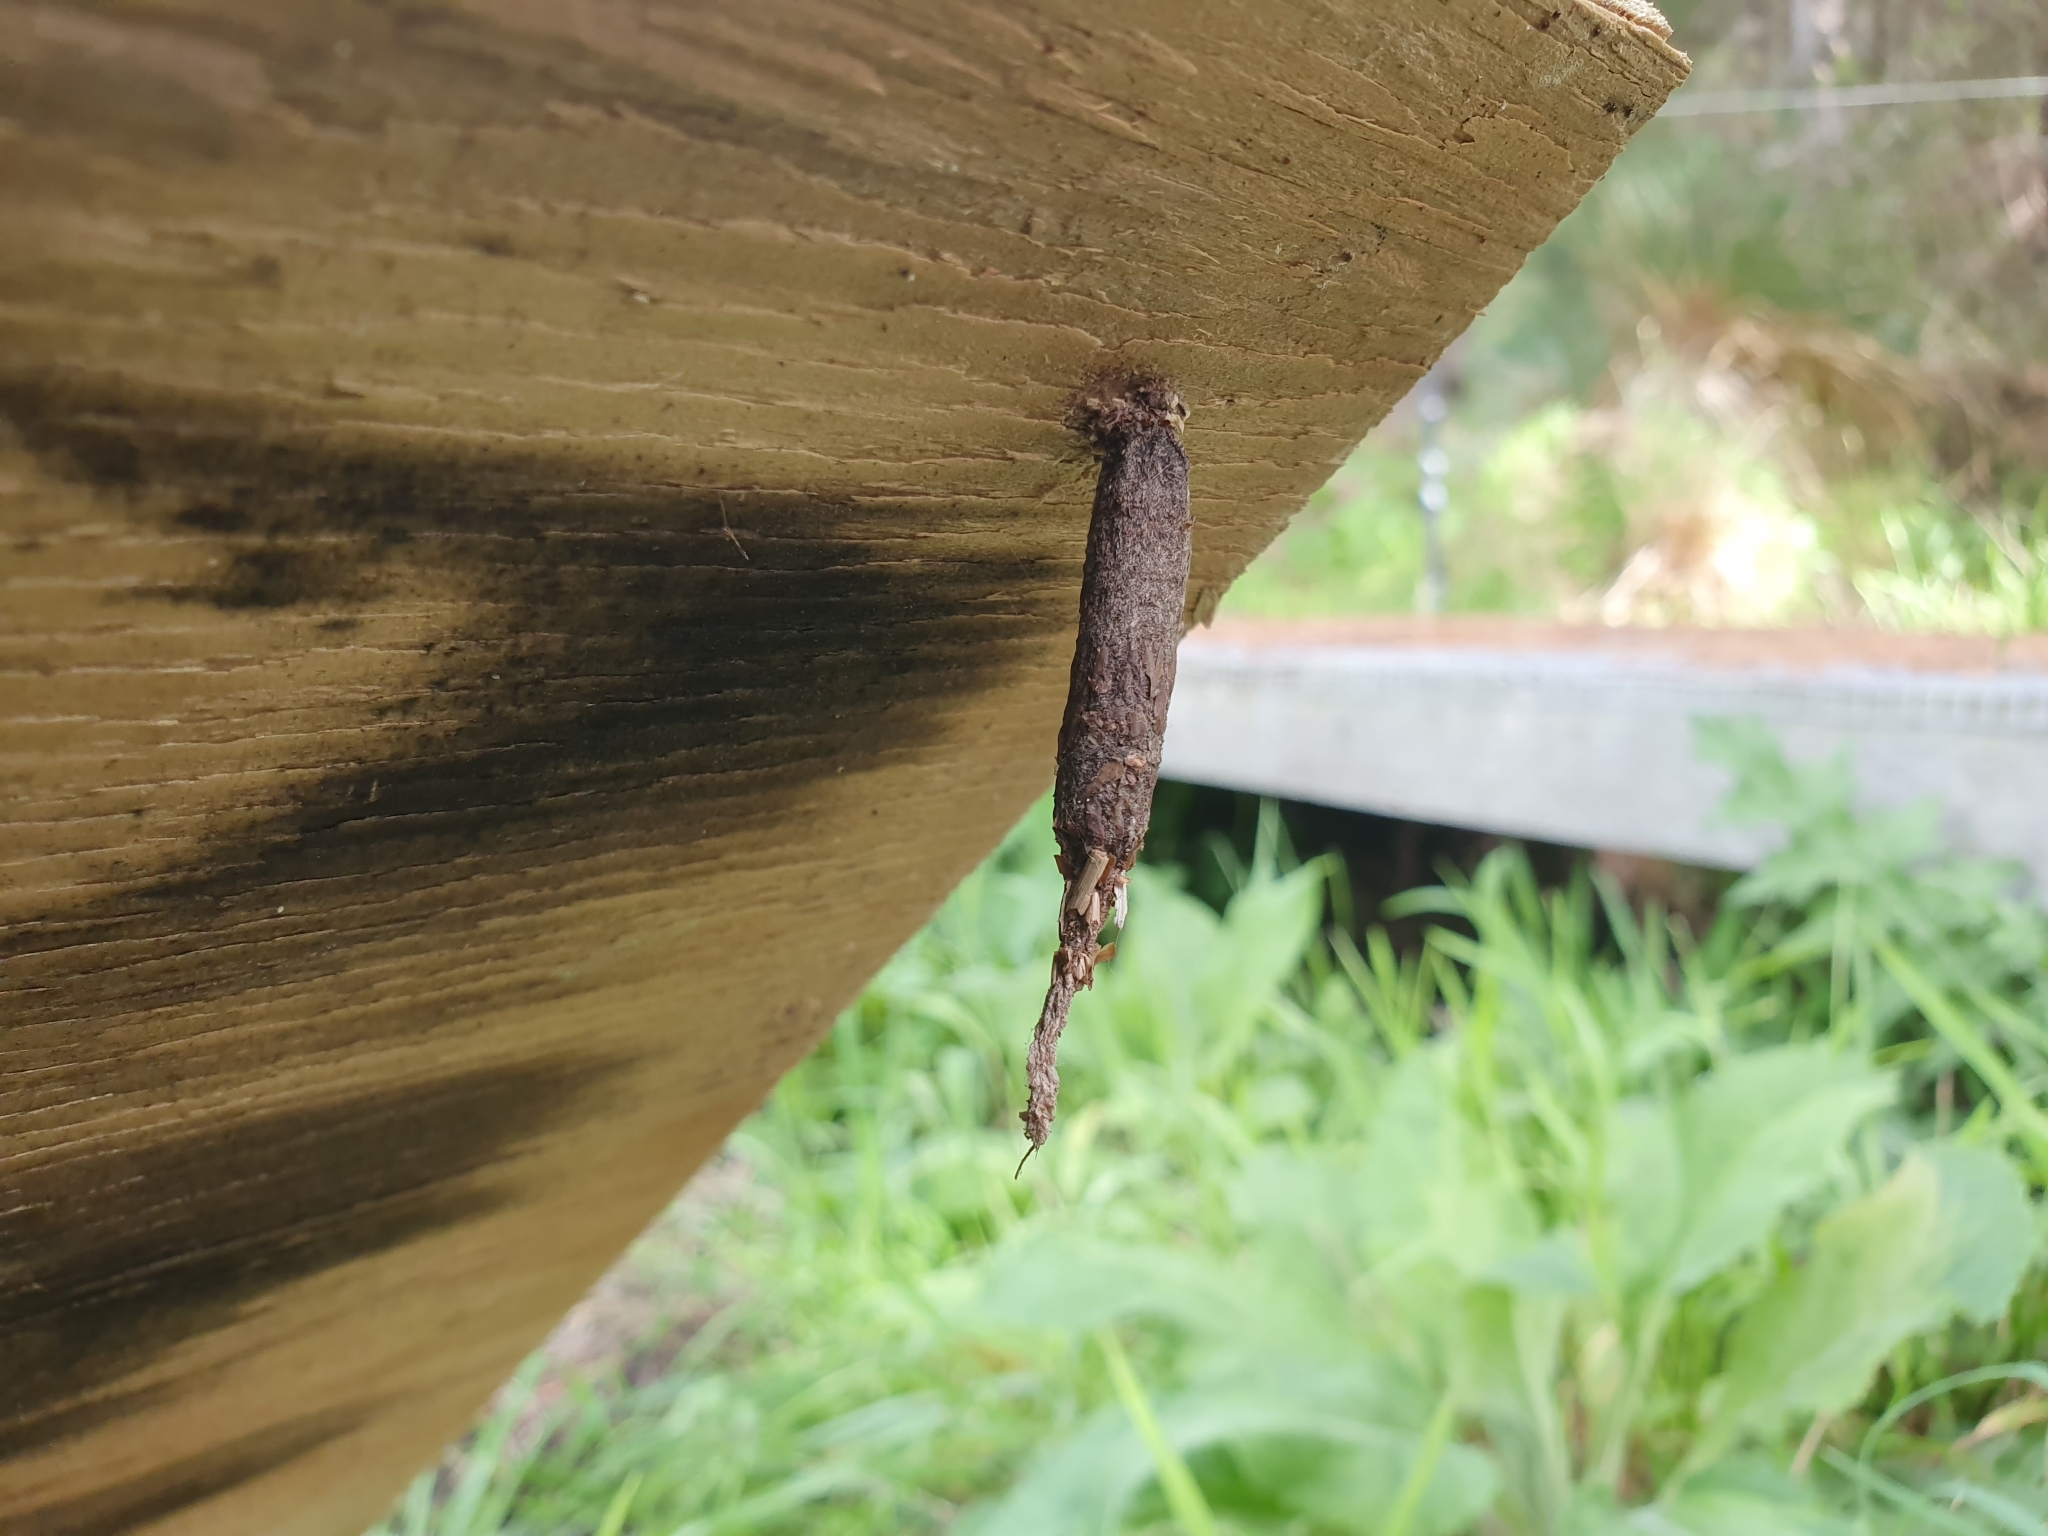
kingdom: Animalia
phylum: Arthropoda
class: Insecta
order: Lepidoptera
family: Psychidae
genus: Liothula
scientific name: Liothula omnivora
